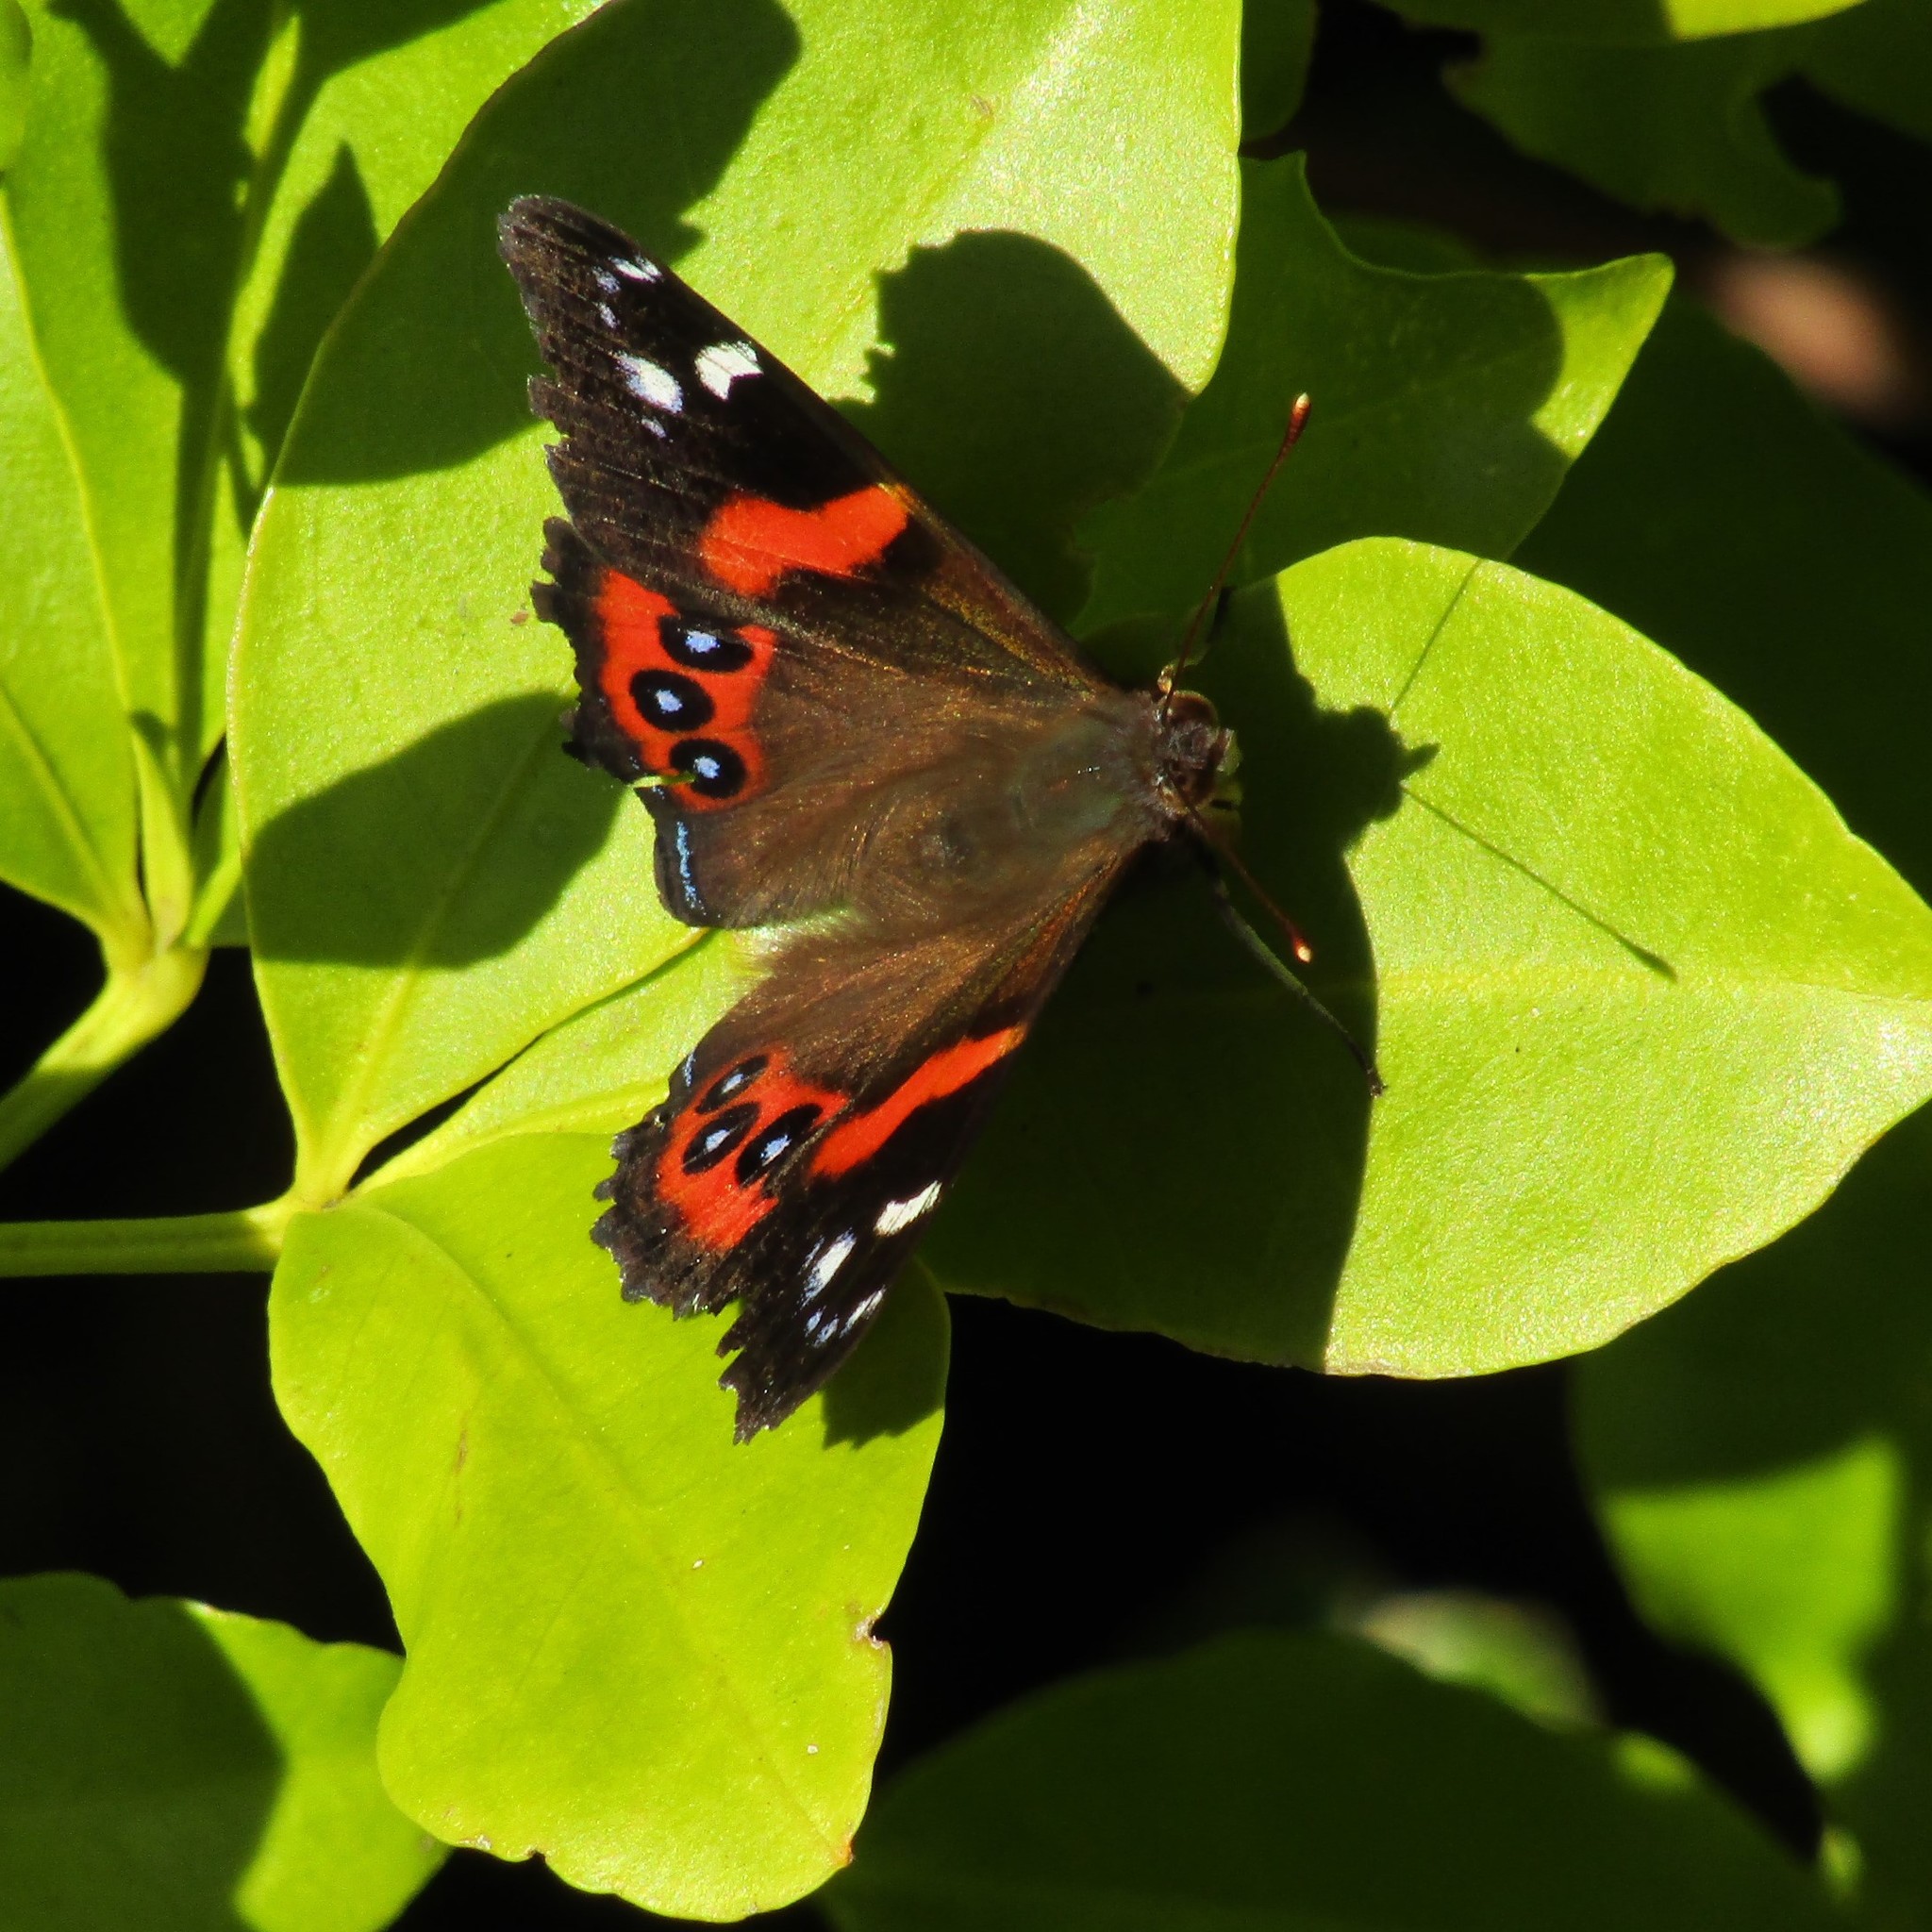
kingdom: Animalia
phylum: Arthropoda
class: Insecta
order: Lepidoptera
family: Nymphalidae
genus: Vanessa
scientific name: Vanessa gonerilla
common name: New zealand red admiral
